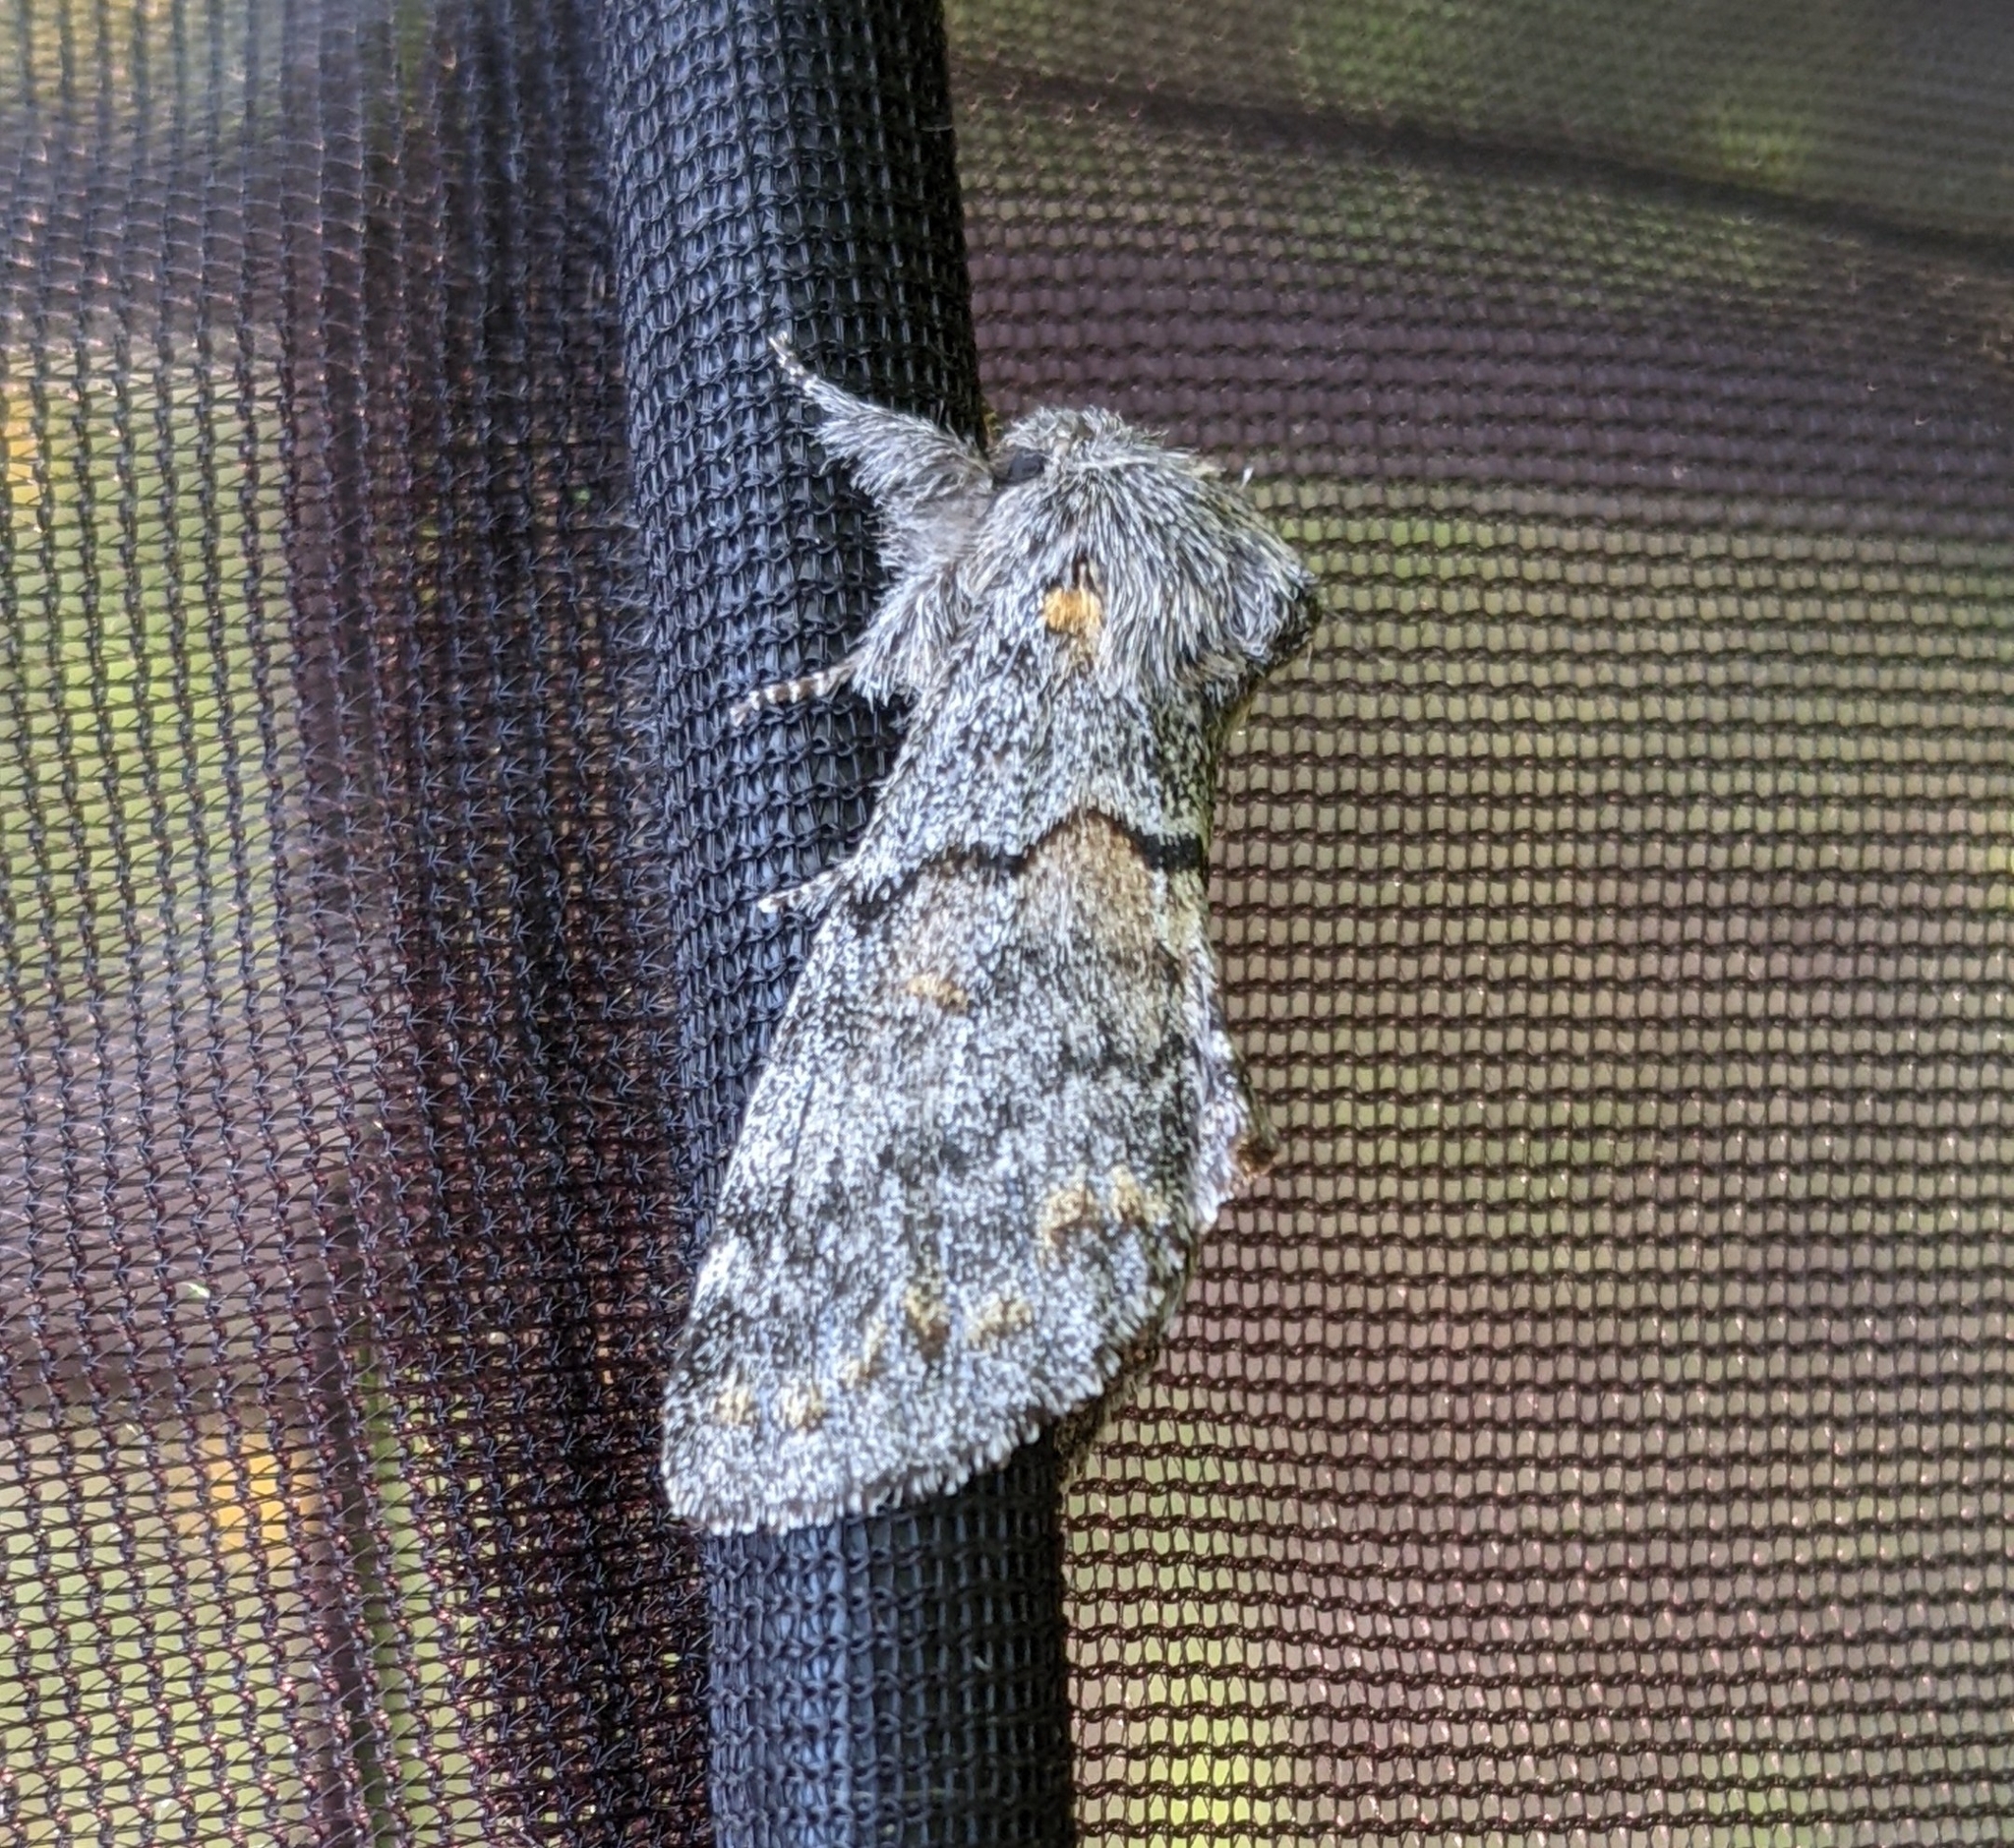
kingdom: Animalia
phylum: Arthropoda
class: Insecta
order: Lepidoptera
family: Notodontidae
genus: Gluphisia
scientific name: Gluphisia severa
